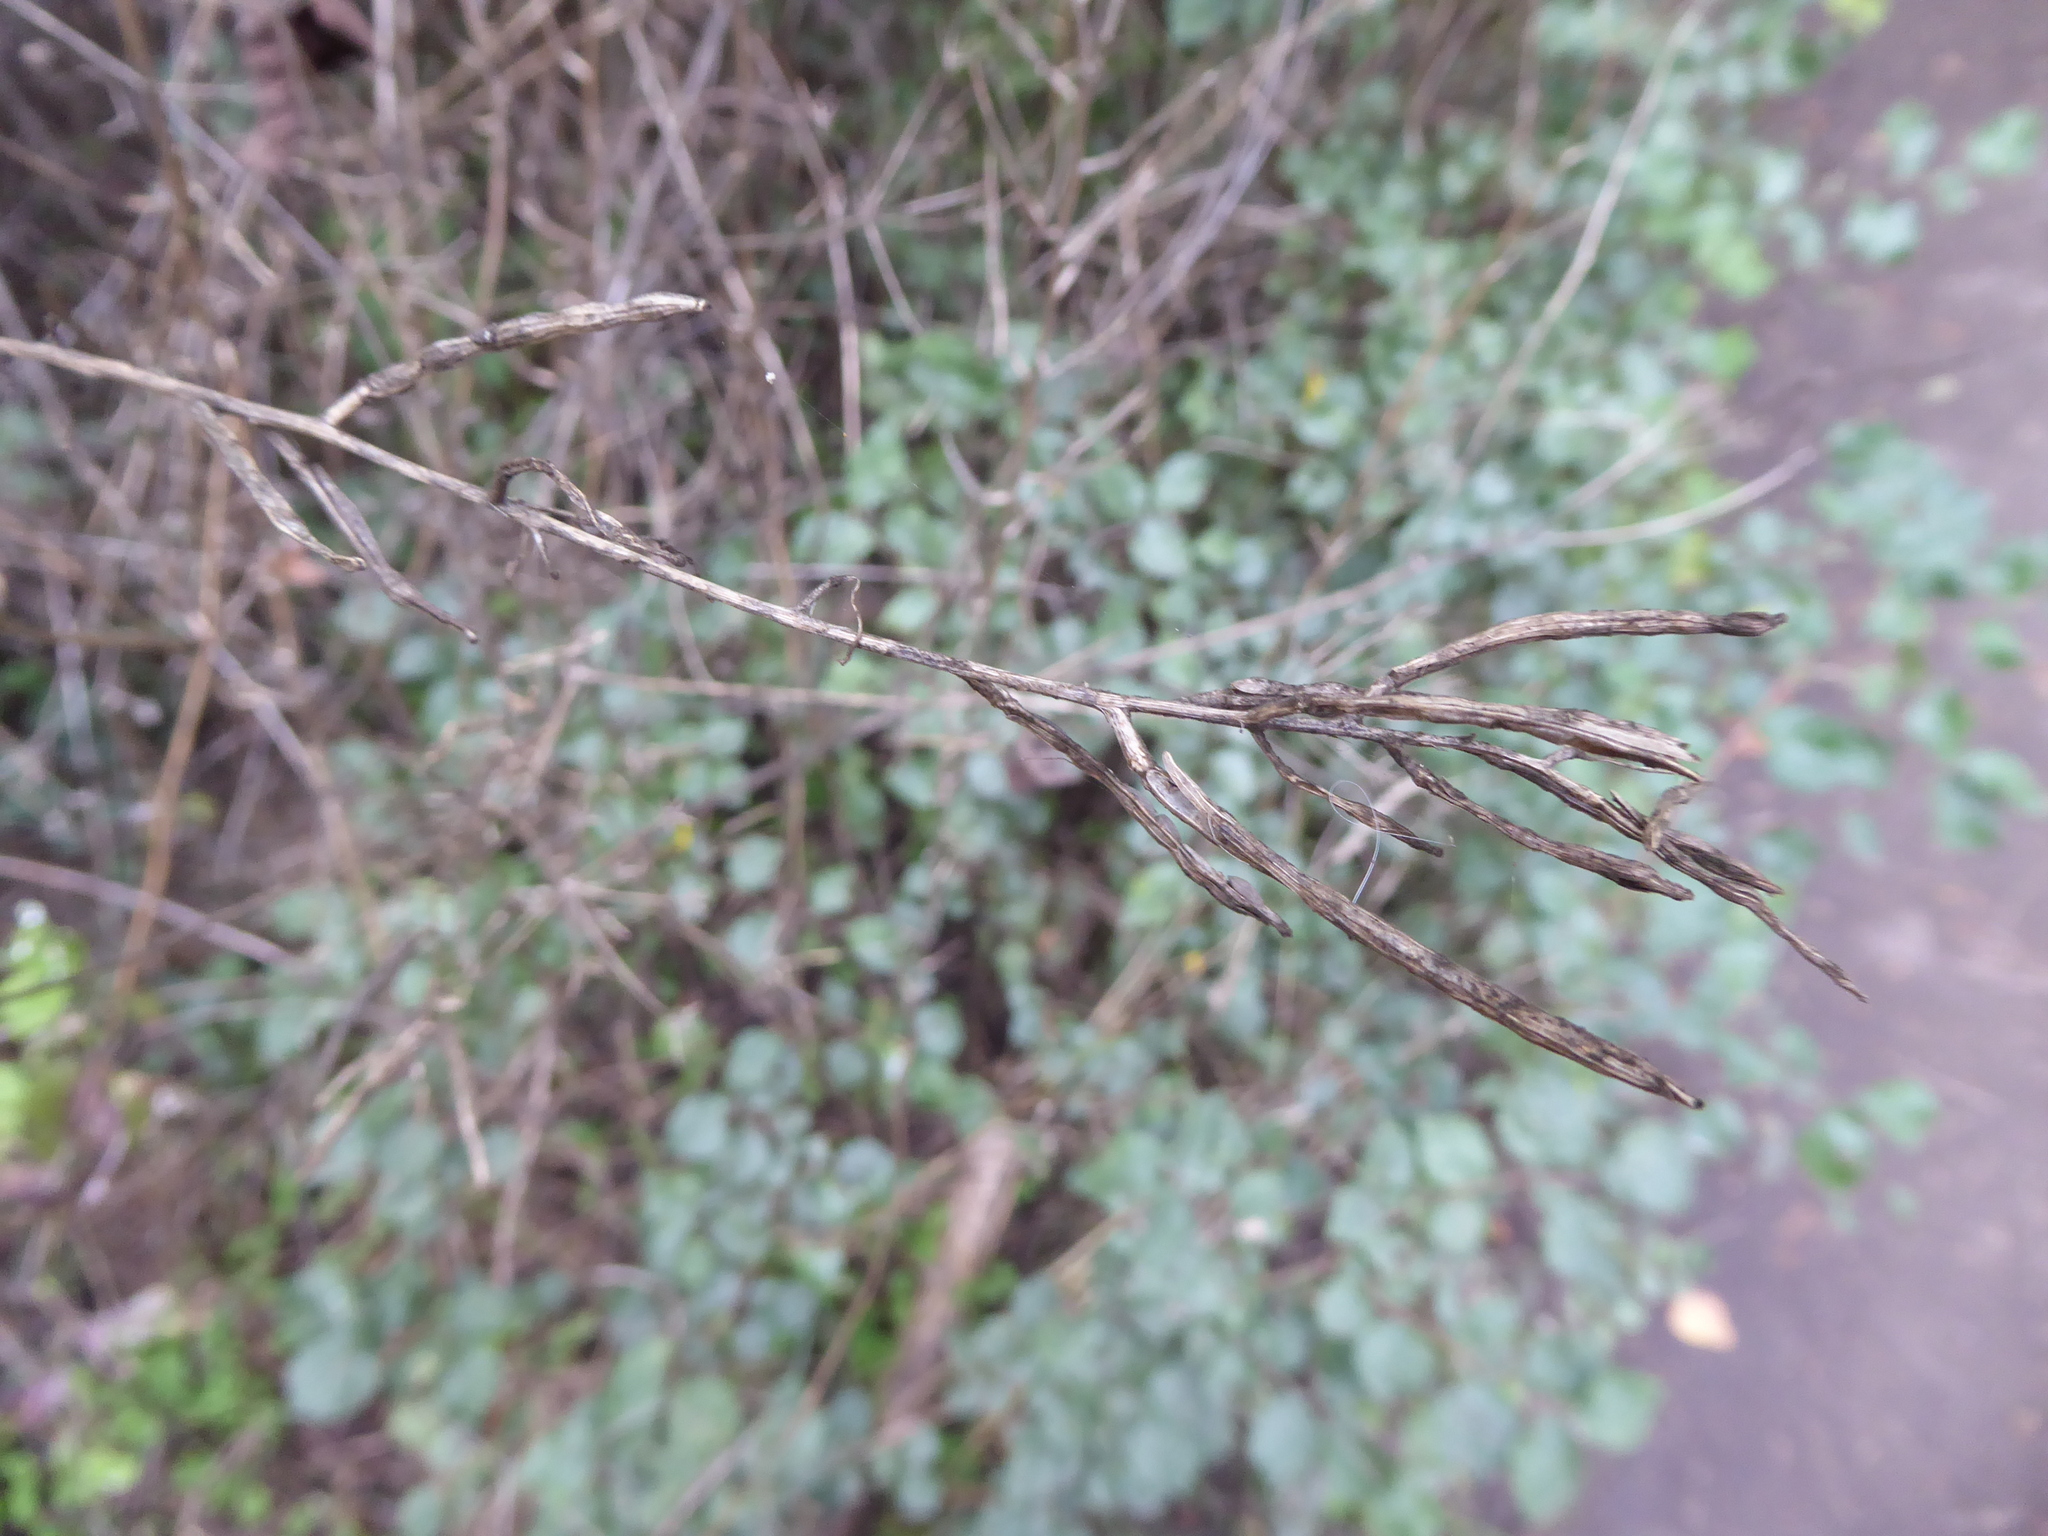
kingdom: Plantae
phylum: Tracheophyta
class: Magnoliopsida
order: Brassicales
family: Brassicaceae
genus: Alliaria
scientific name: Alliaria petiolata
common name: Garlic mustard
